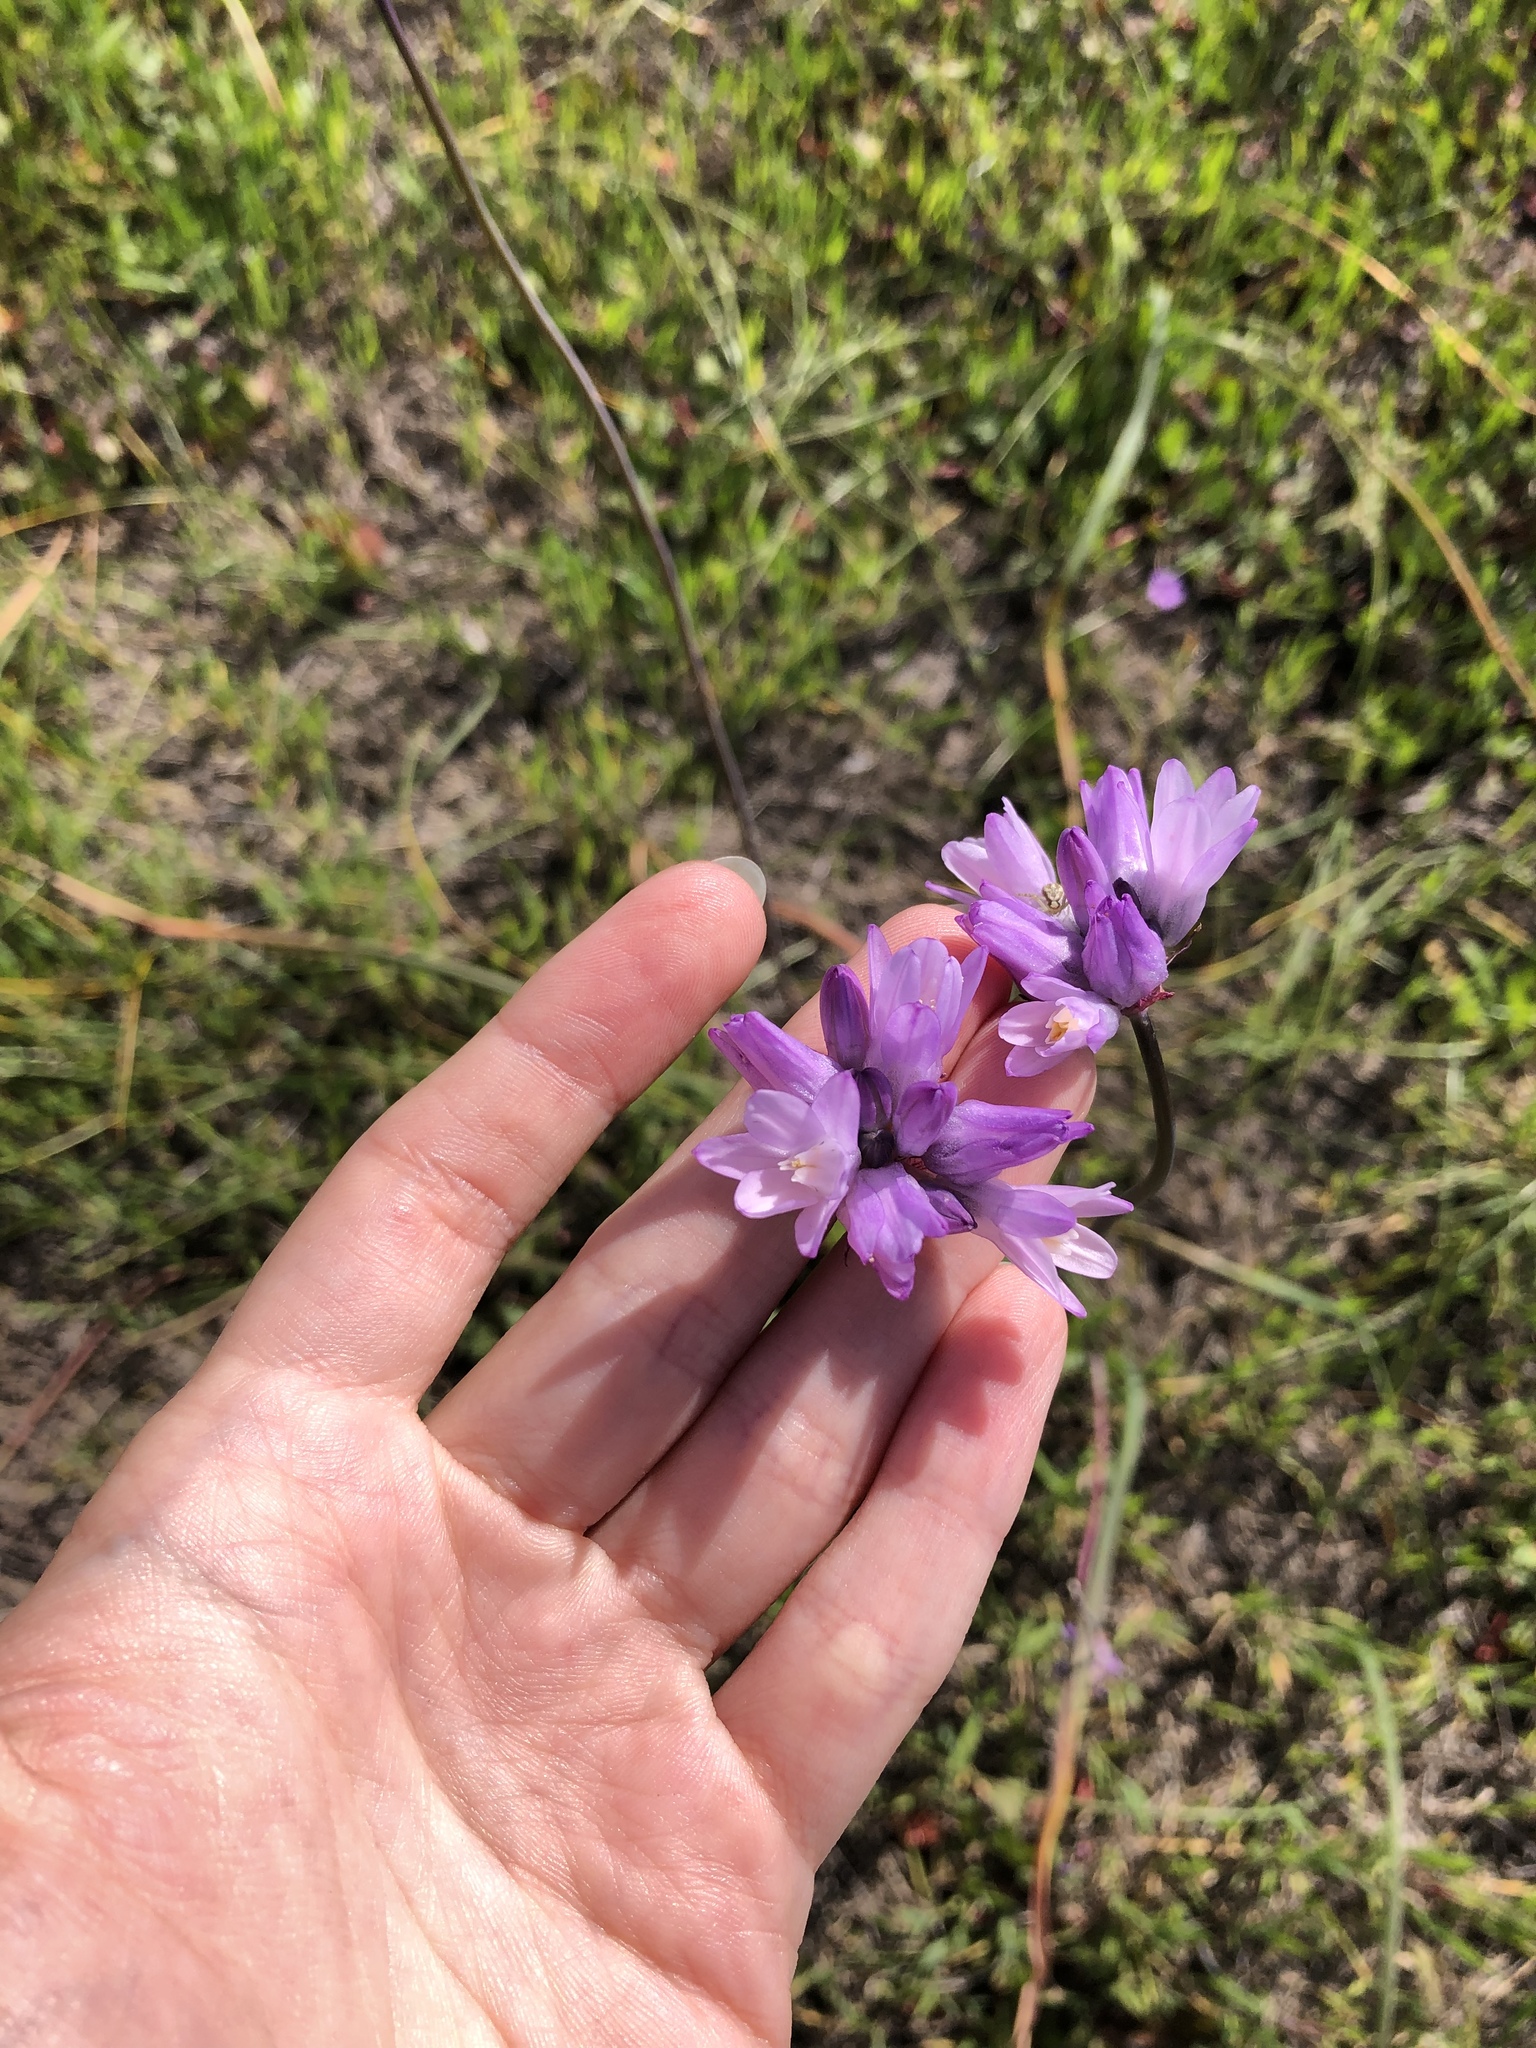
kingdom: Plantae
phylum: Tracheophyta
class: Liliopsida
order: Asparagales
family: Asparagaceae
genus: Dipterostemon
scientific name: Dipterostemon capitatus
